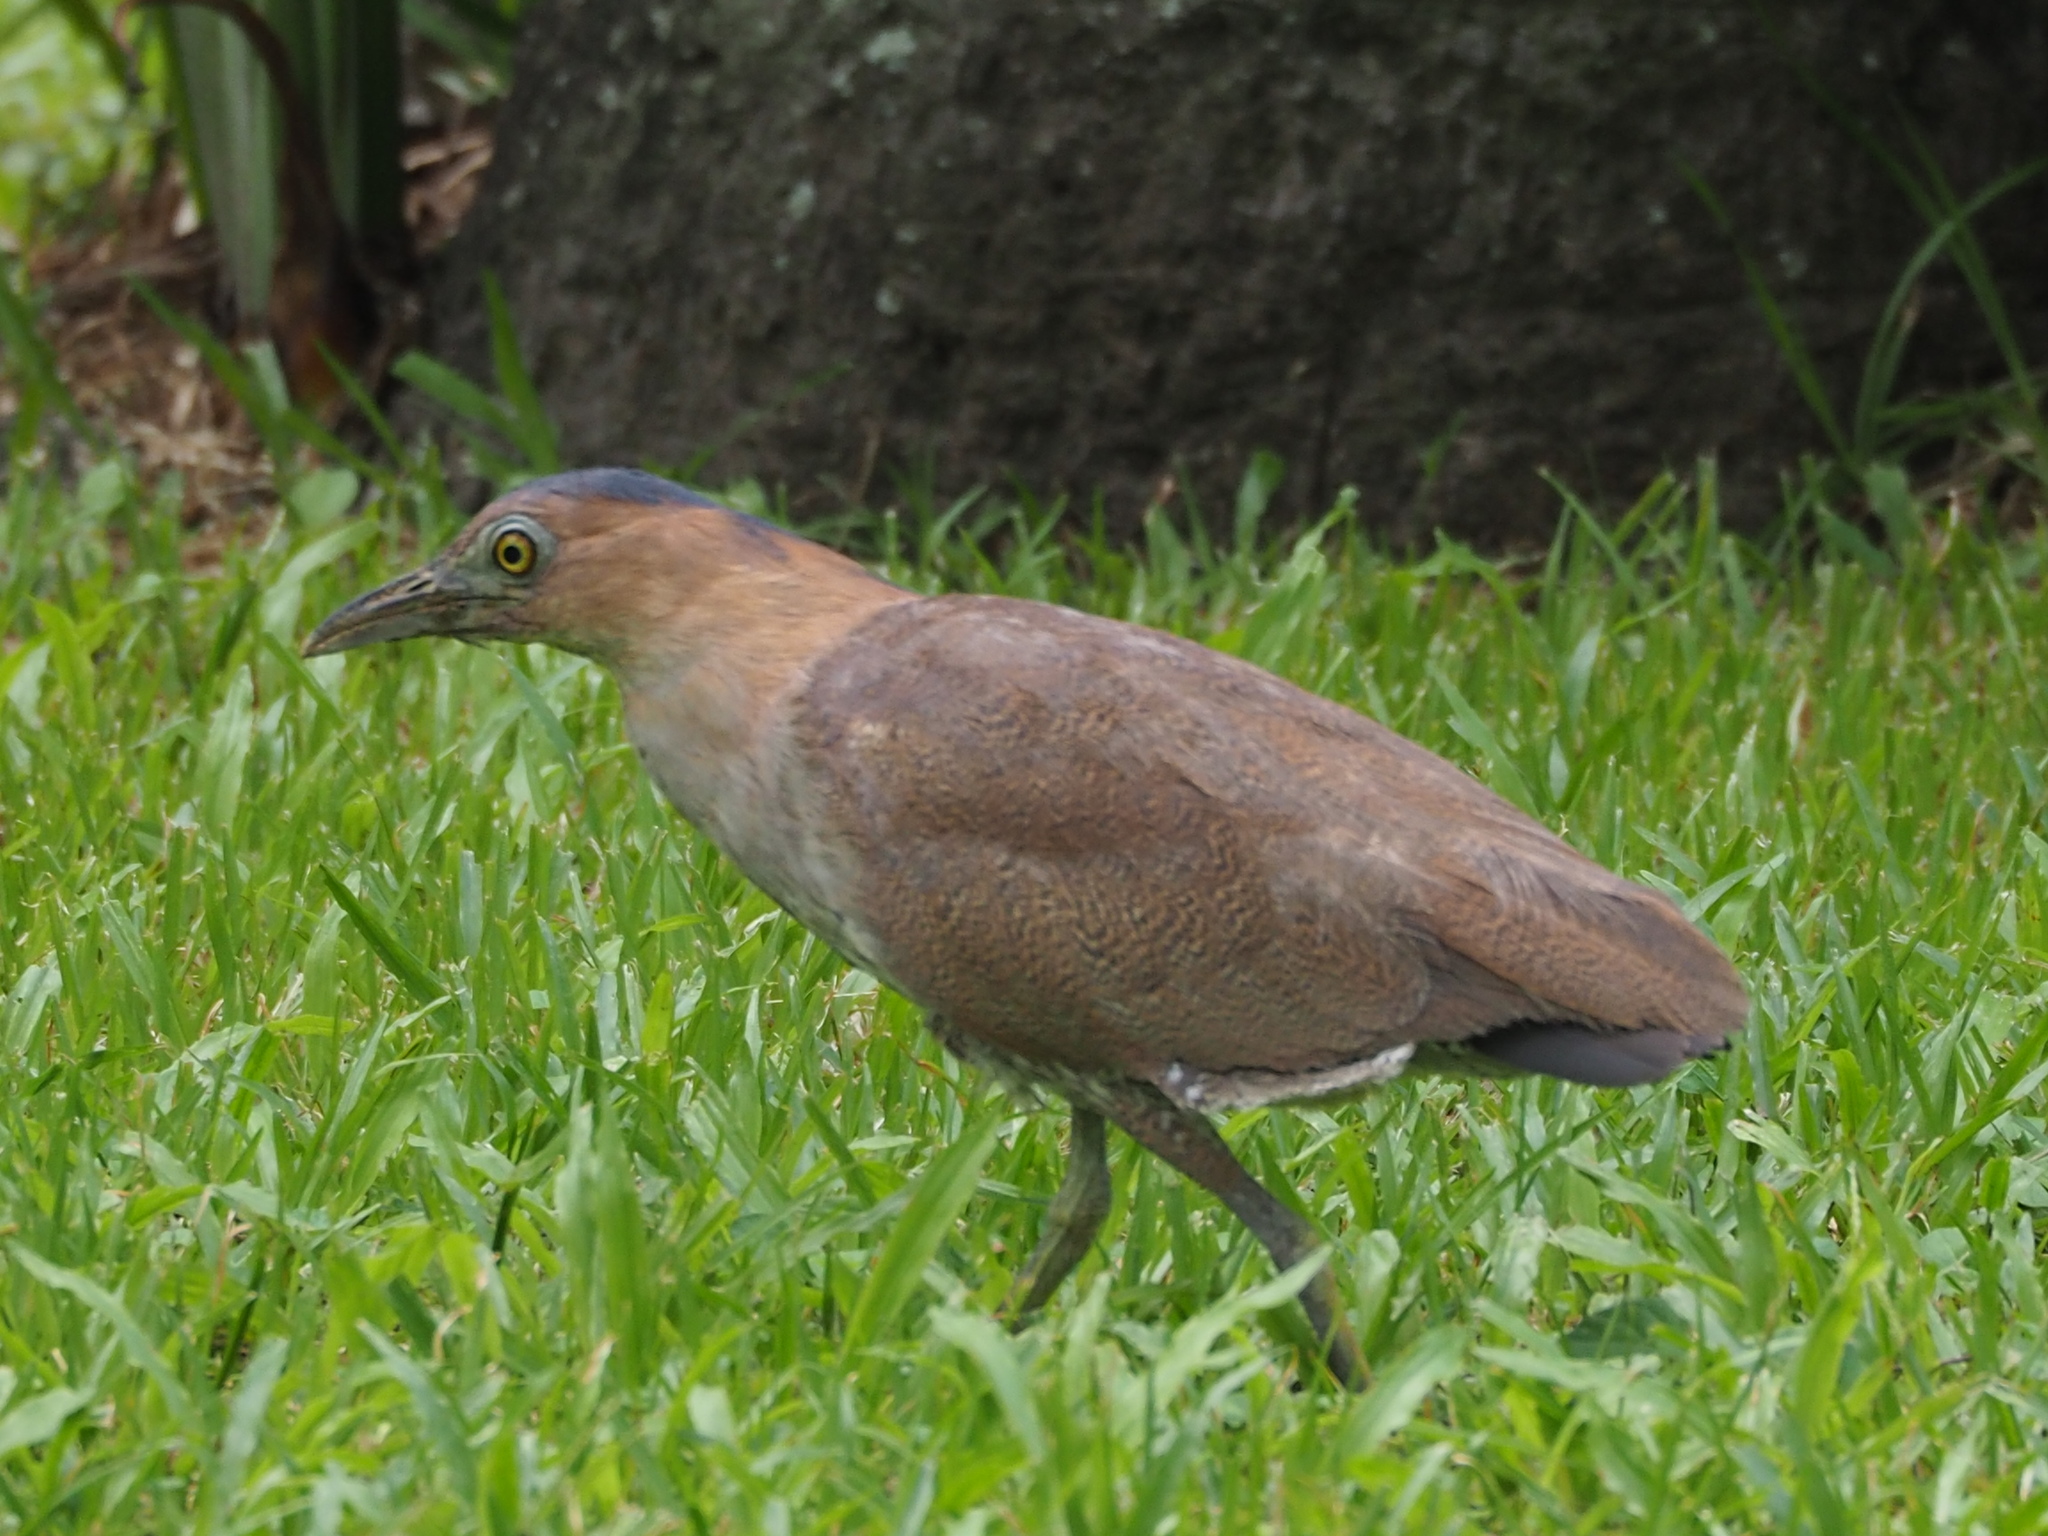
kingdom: Animalia
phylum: Chordata
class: Aves
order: Pelecaniformes
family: Ardeidae
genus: Gorsachius
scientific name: Gorsachius melanolophus
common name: Malayan night heron
